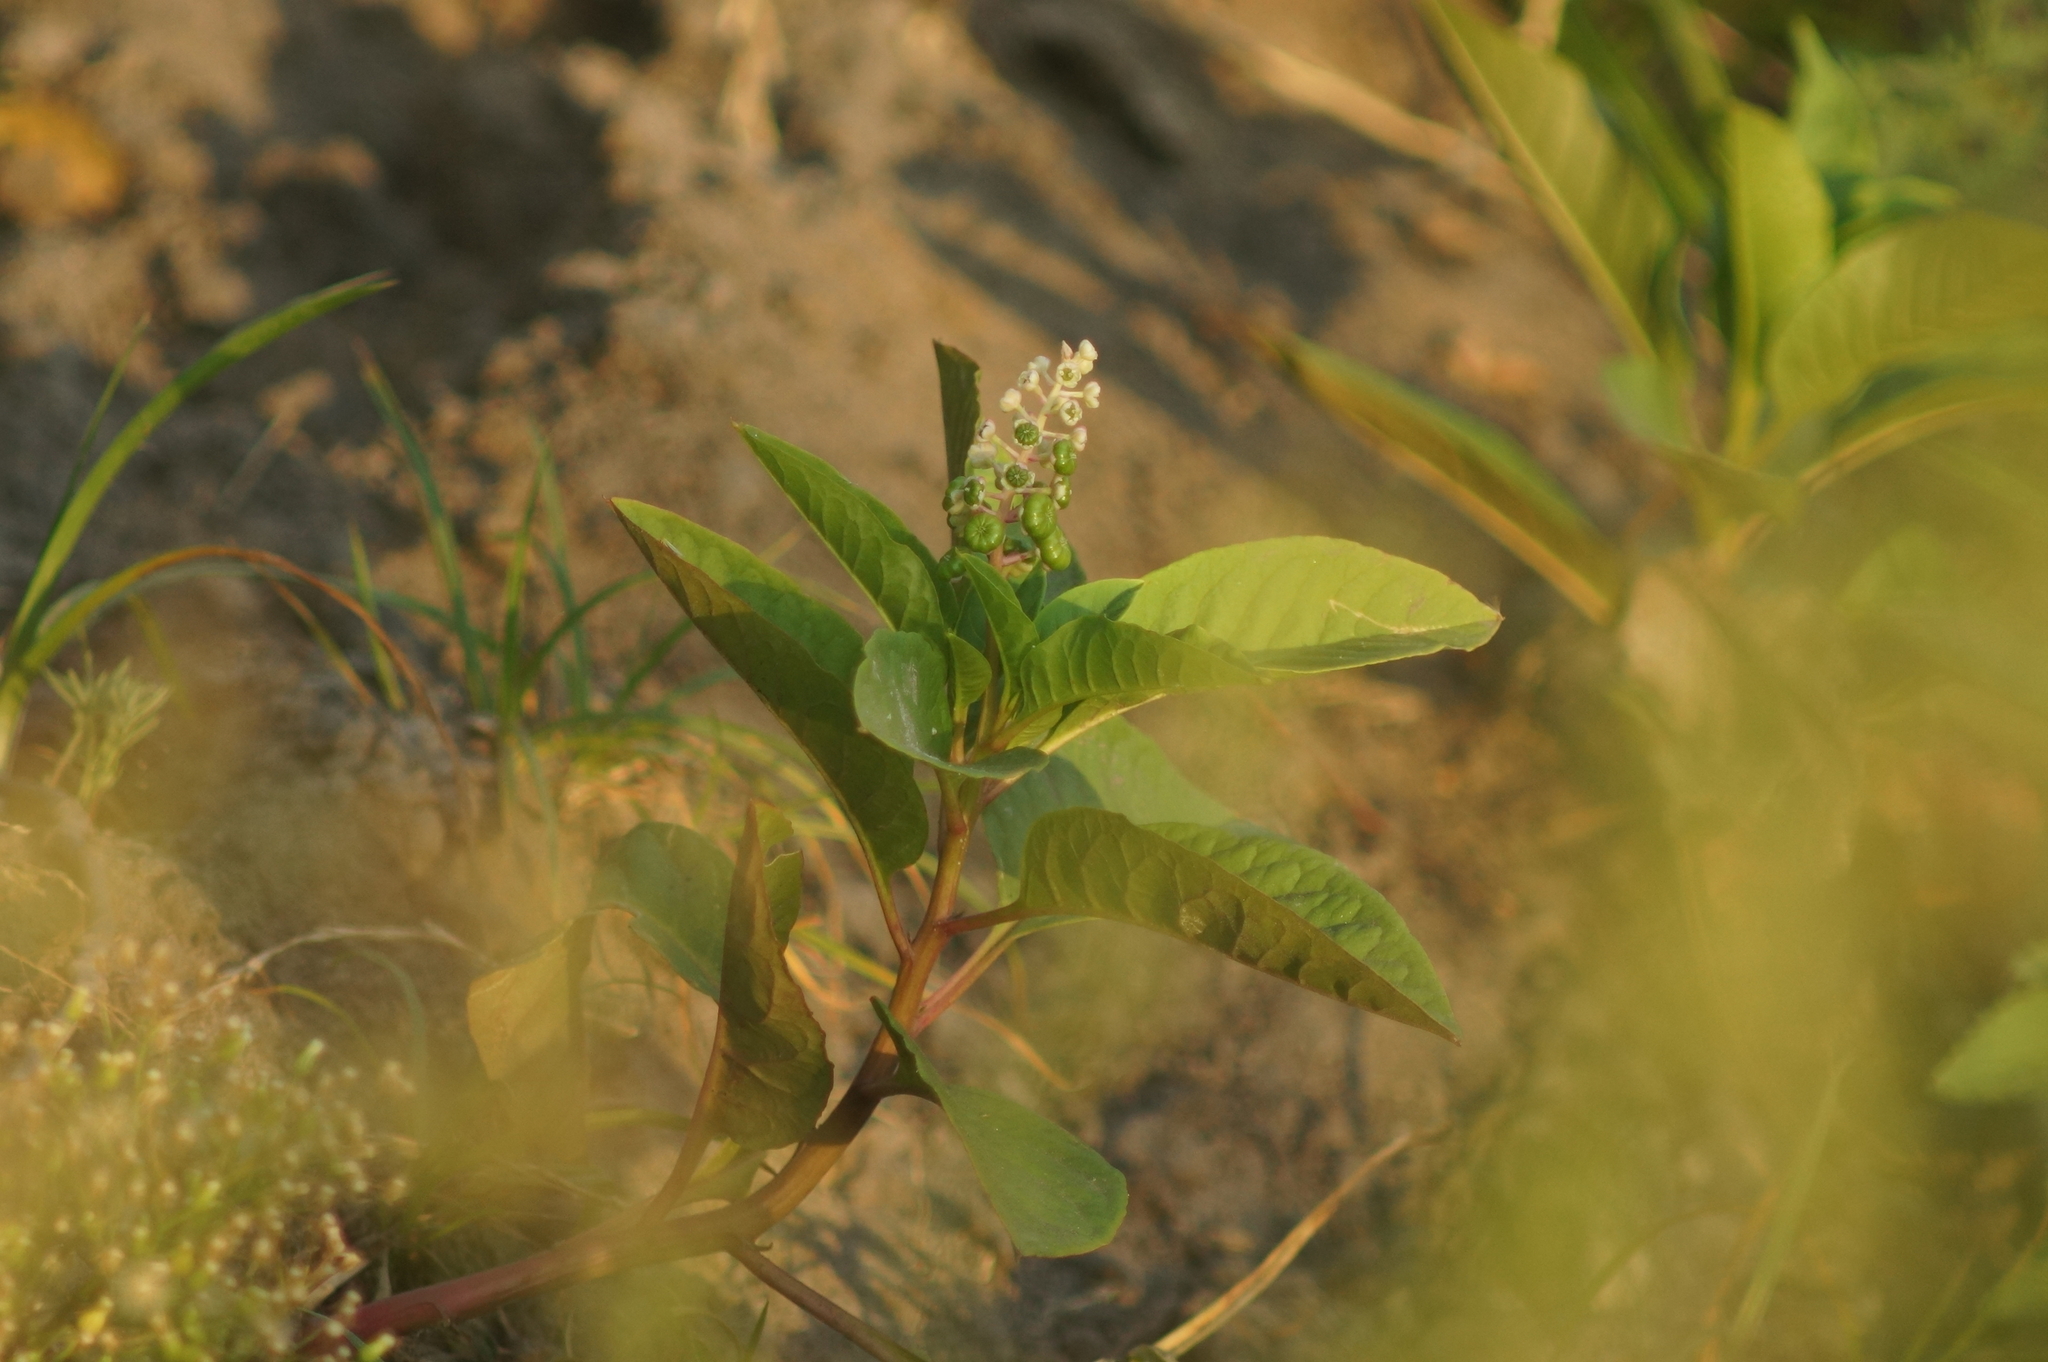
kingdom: Plantae
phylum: Tracheophyta
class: Magnoliopsida
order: Caryophyllales
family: Phytolaccaceae
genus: Phytolacca
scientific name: Phytolacca americana
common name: American pokeweed
